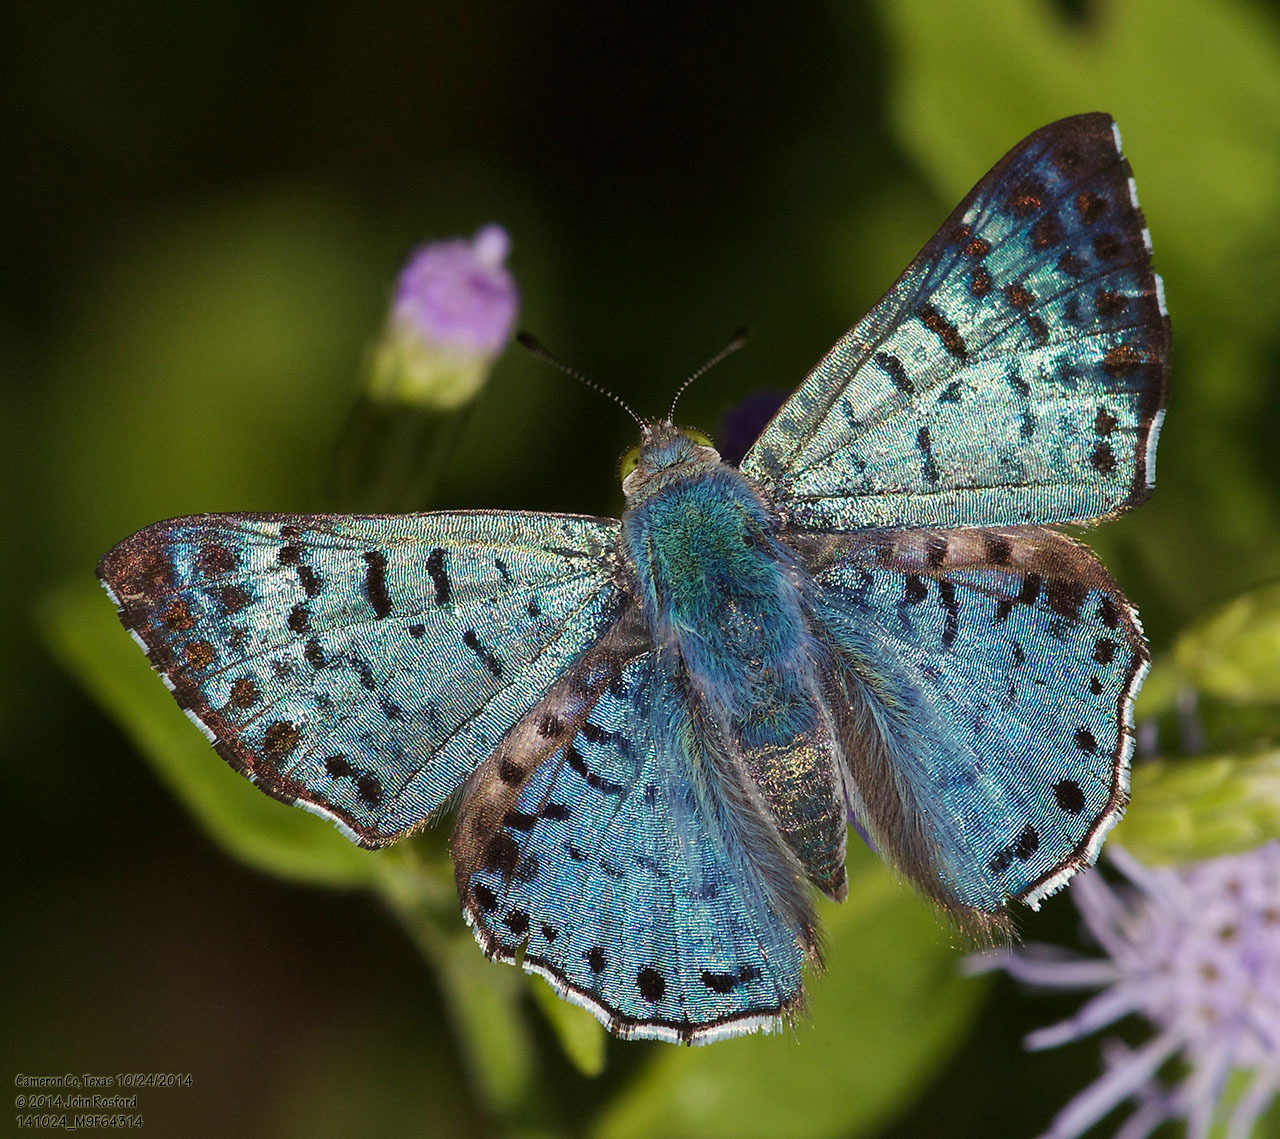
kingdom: Animalia
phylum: Arthropoda
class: Insecta
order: Lepidoptera
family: Riodinidae
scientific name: Riodinidae
